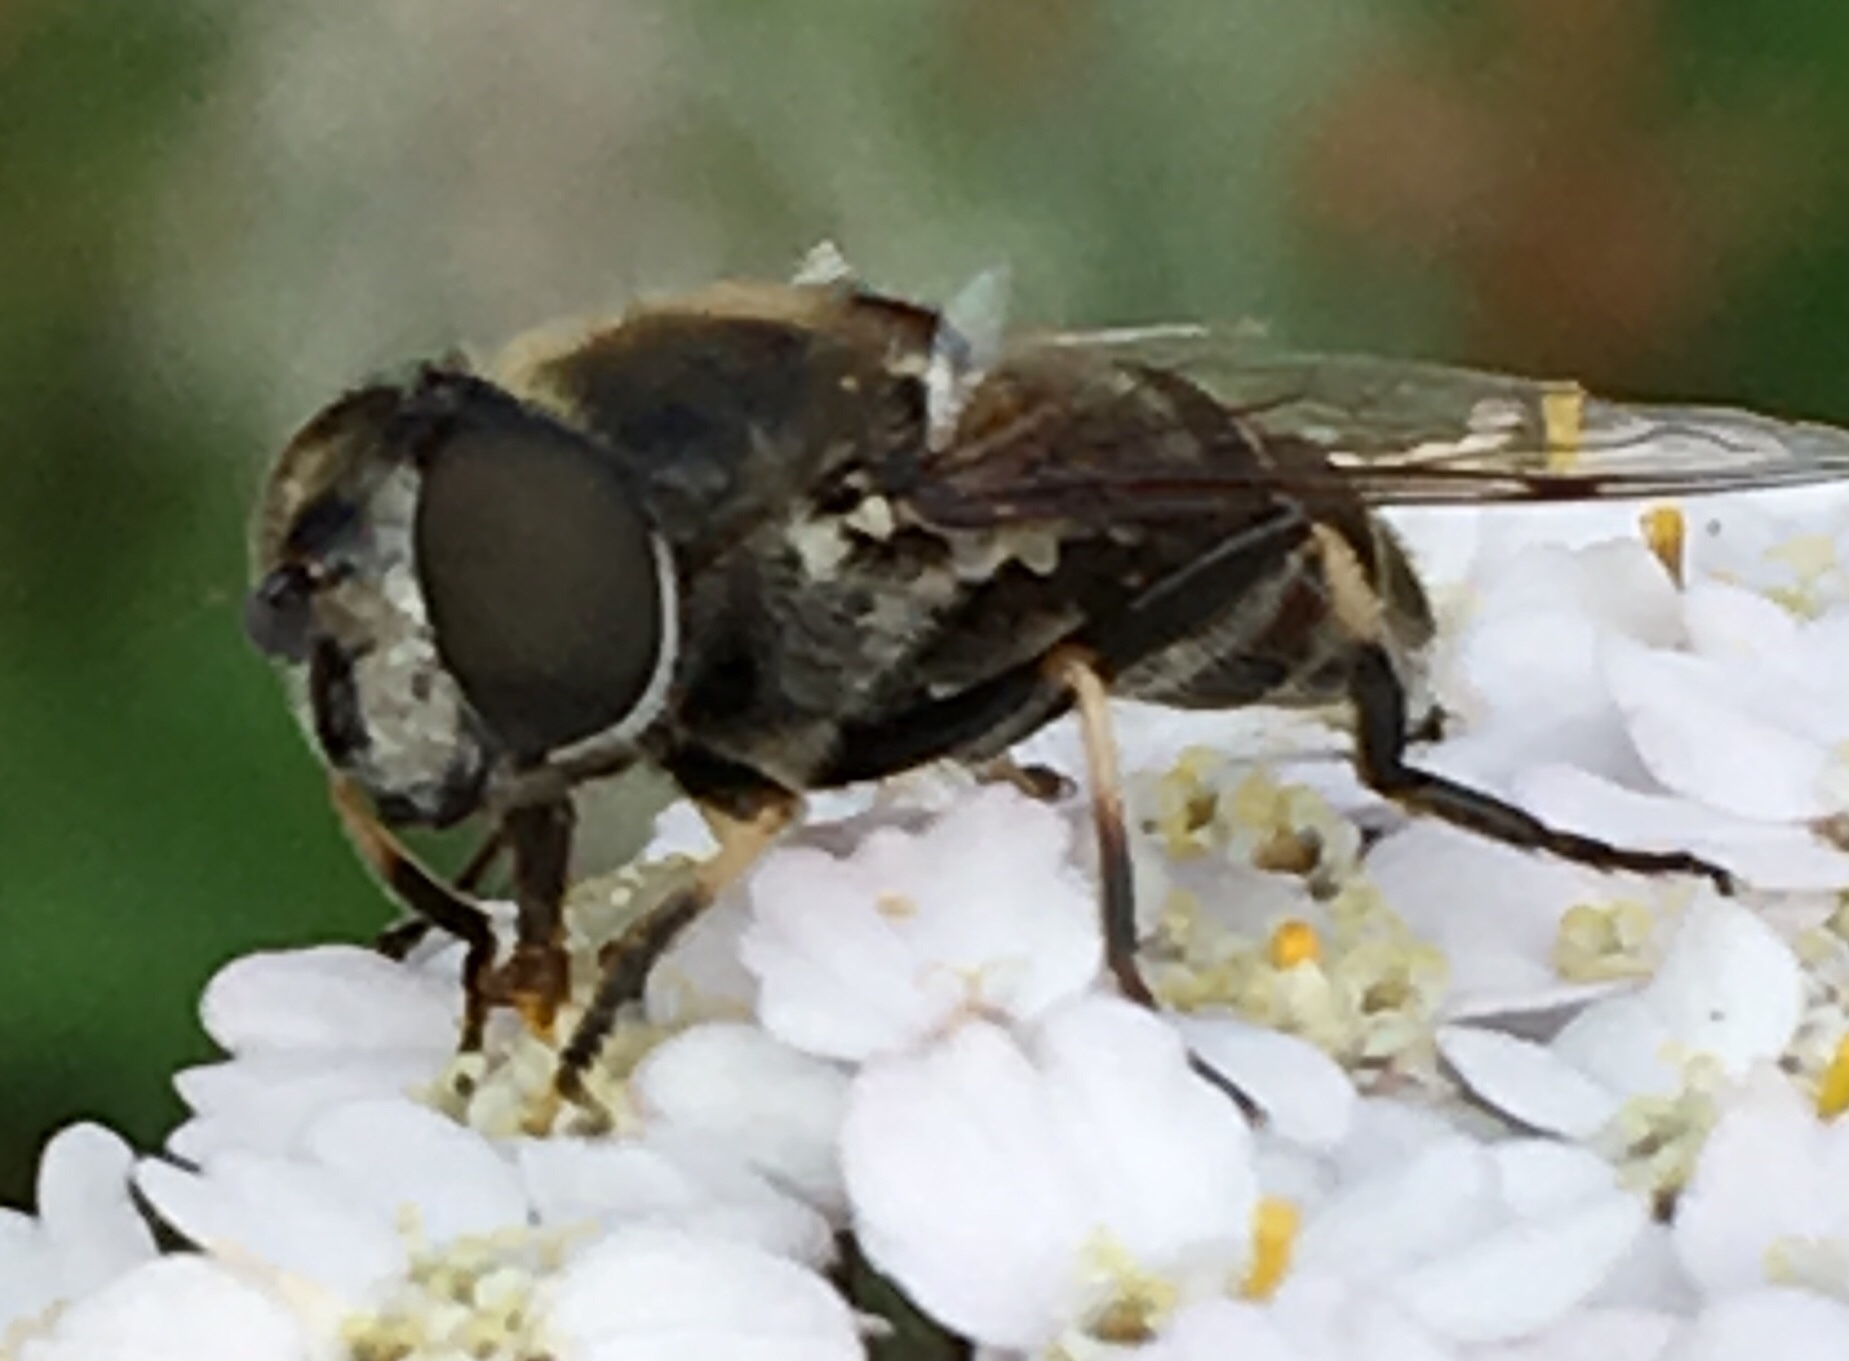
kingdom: Animalia
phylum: Arthropoda
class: Insecta
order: Diptera
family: Syrphidae
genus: Eristalis
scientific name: Eristalis dimidiata
